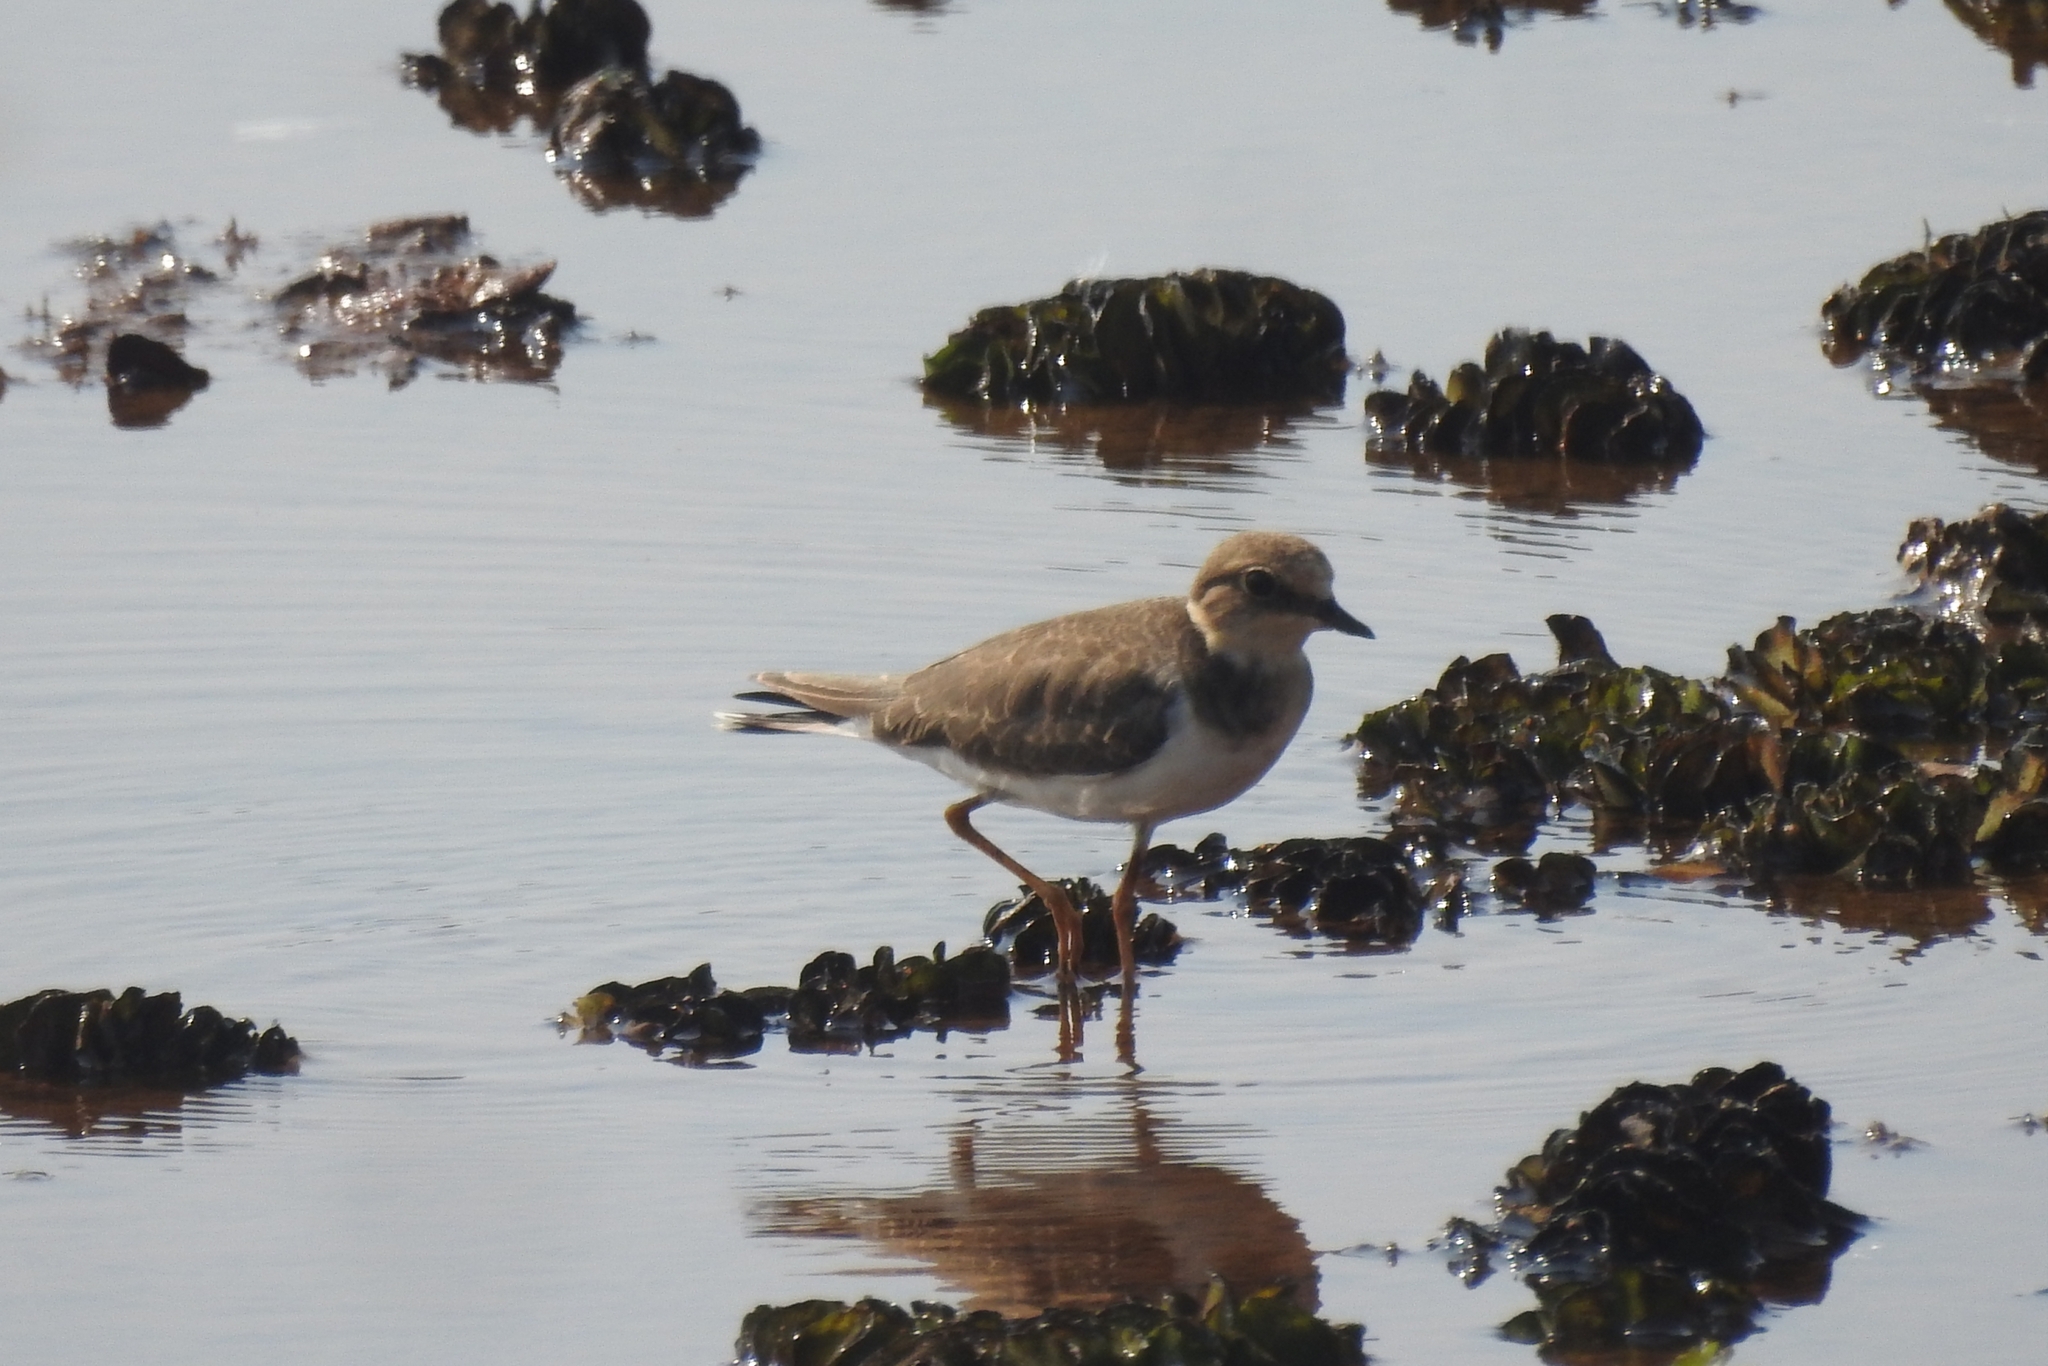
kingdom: Animalia
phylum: Chordata
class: Aves
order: Charadriiformes
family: Charadriidae
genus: Charadrius
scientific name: Charadrius dubius
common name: Little ringed plover
